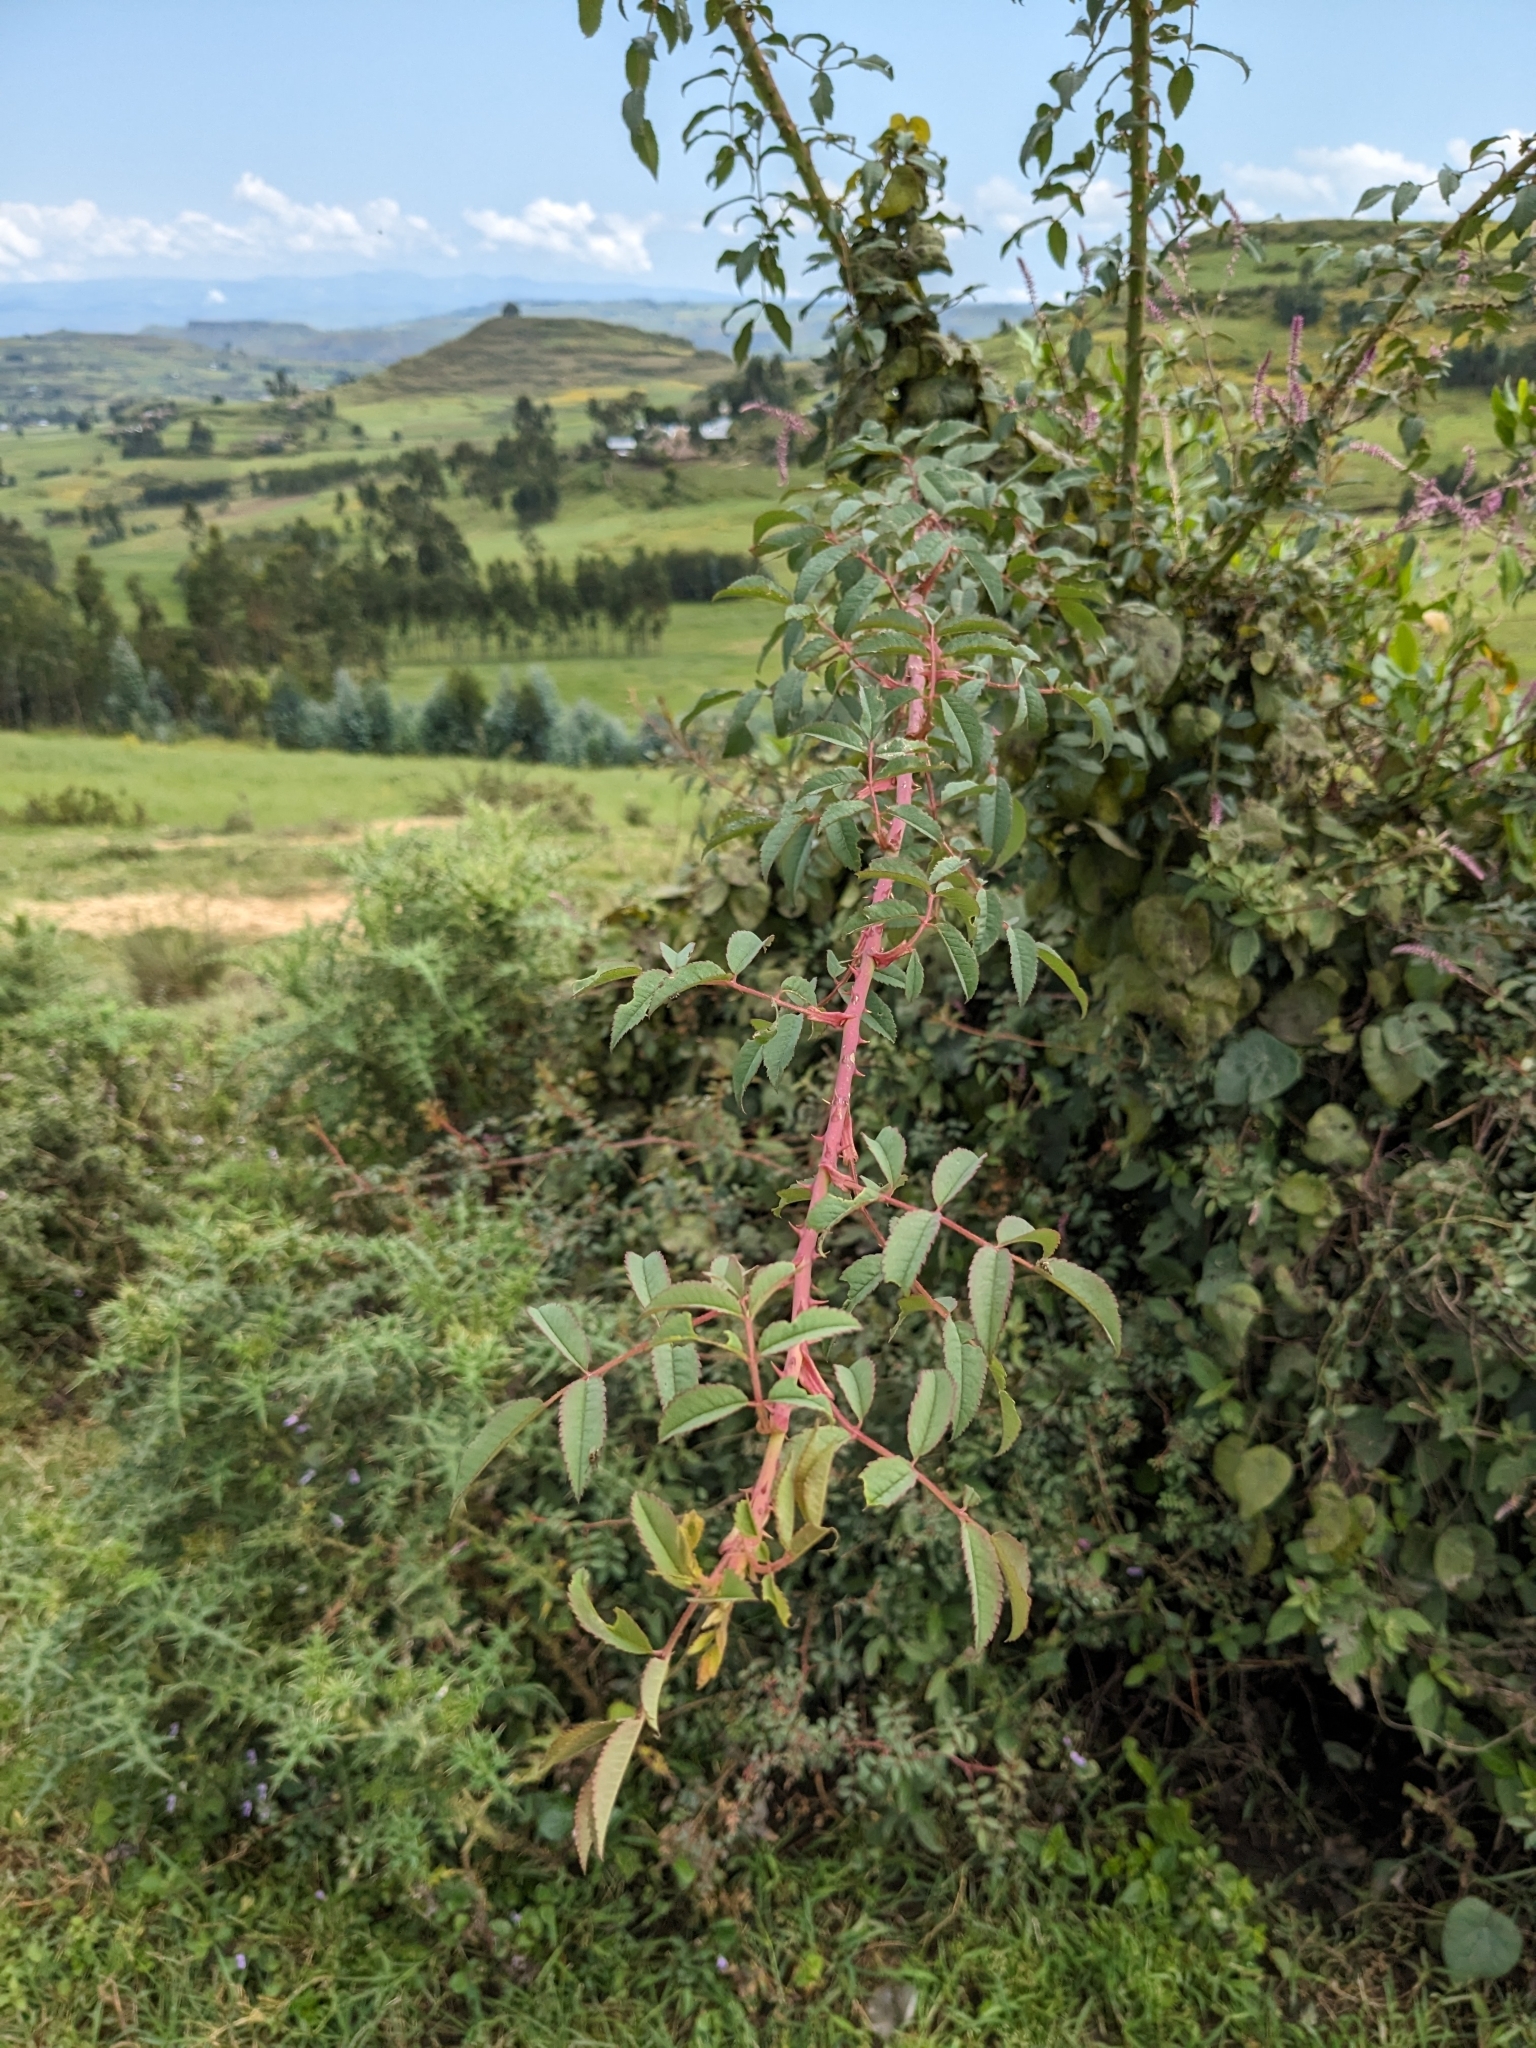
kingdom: Plantae
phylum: Tracheophyta
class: Magnoliopsida
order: Rosales
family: Rosaceae
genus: Rosa
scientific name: Rosa abyssinica
